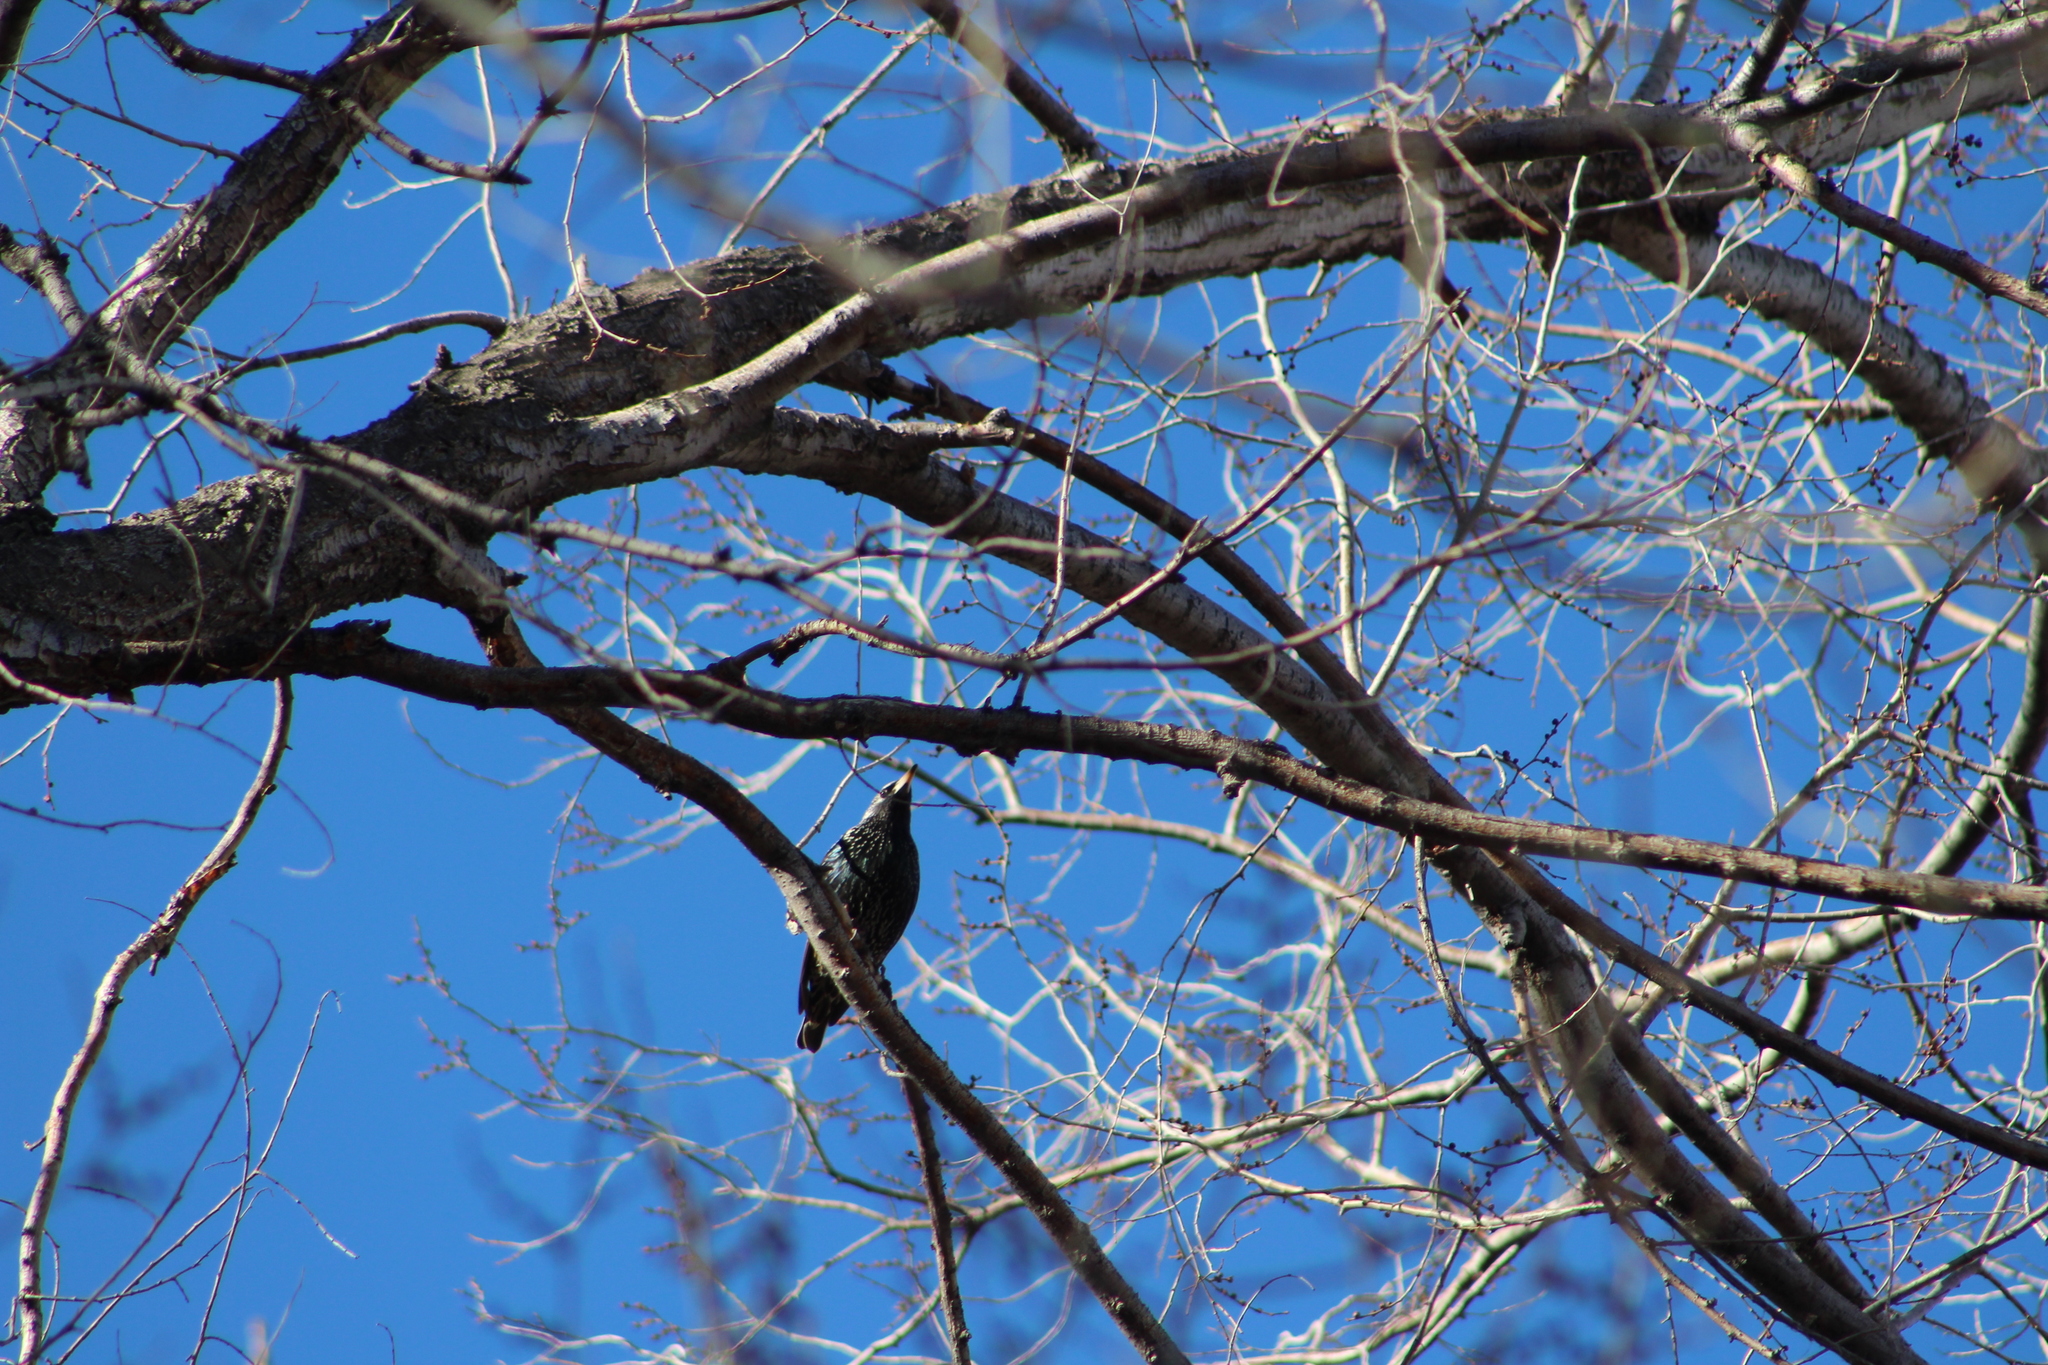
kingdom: Animalia
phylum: Chordata
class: Aves
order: Passeriformes
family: Sturnidae
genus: Sturnus
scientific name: Sturnus vulgaris
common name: Common starling
